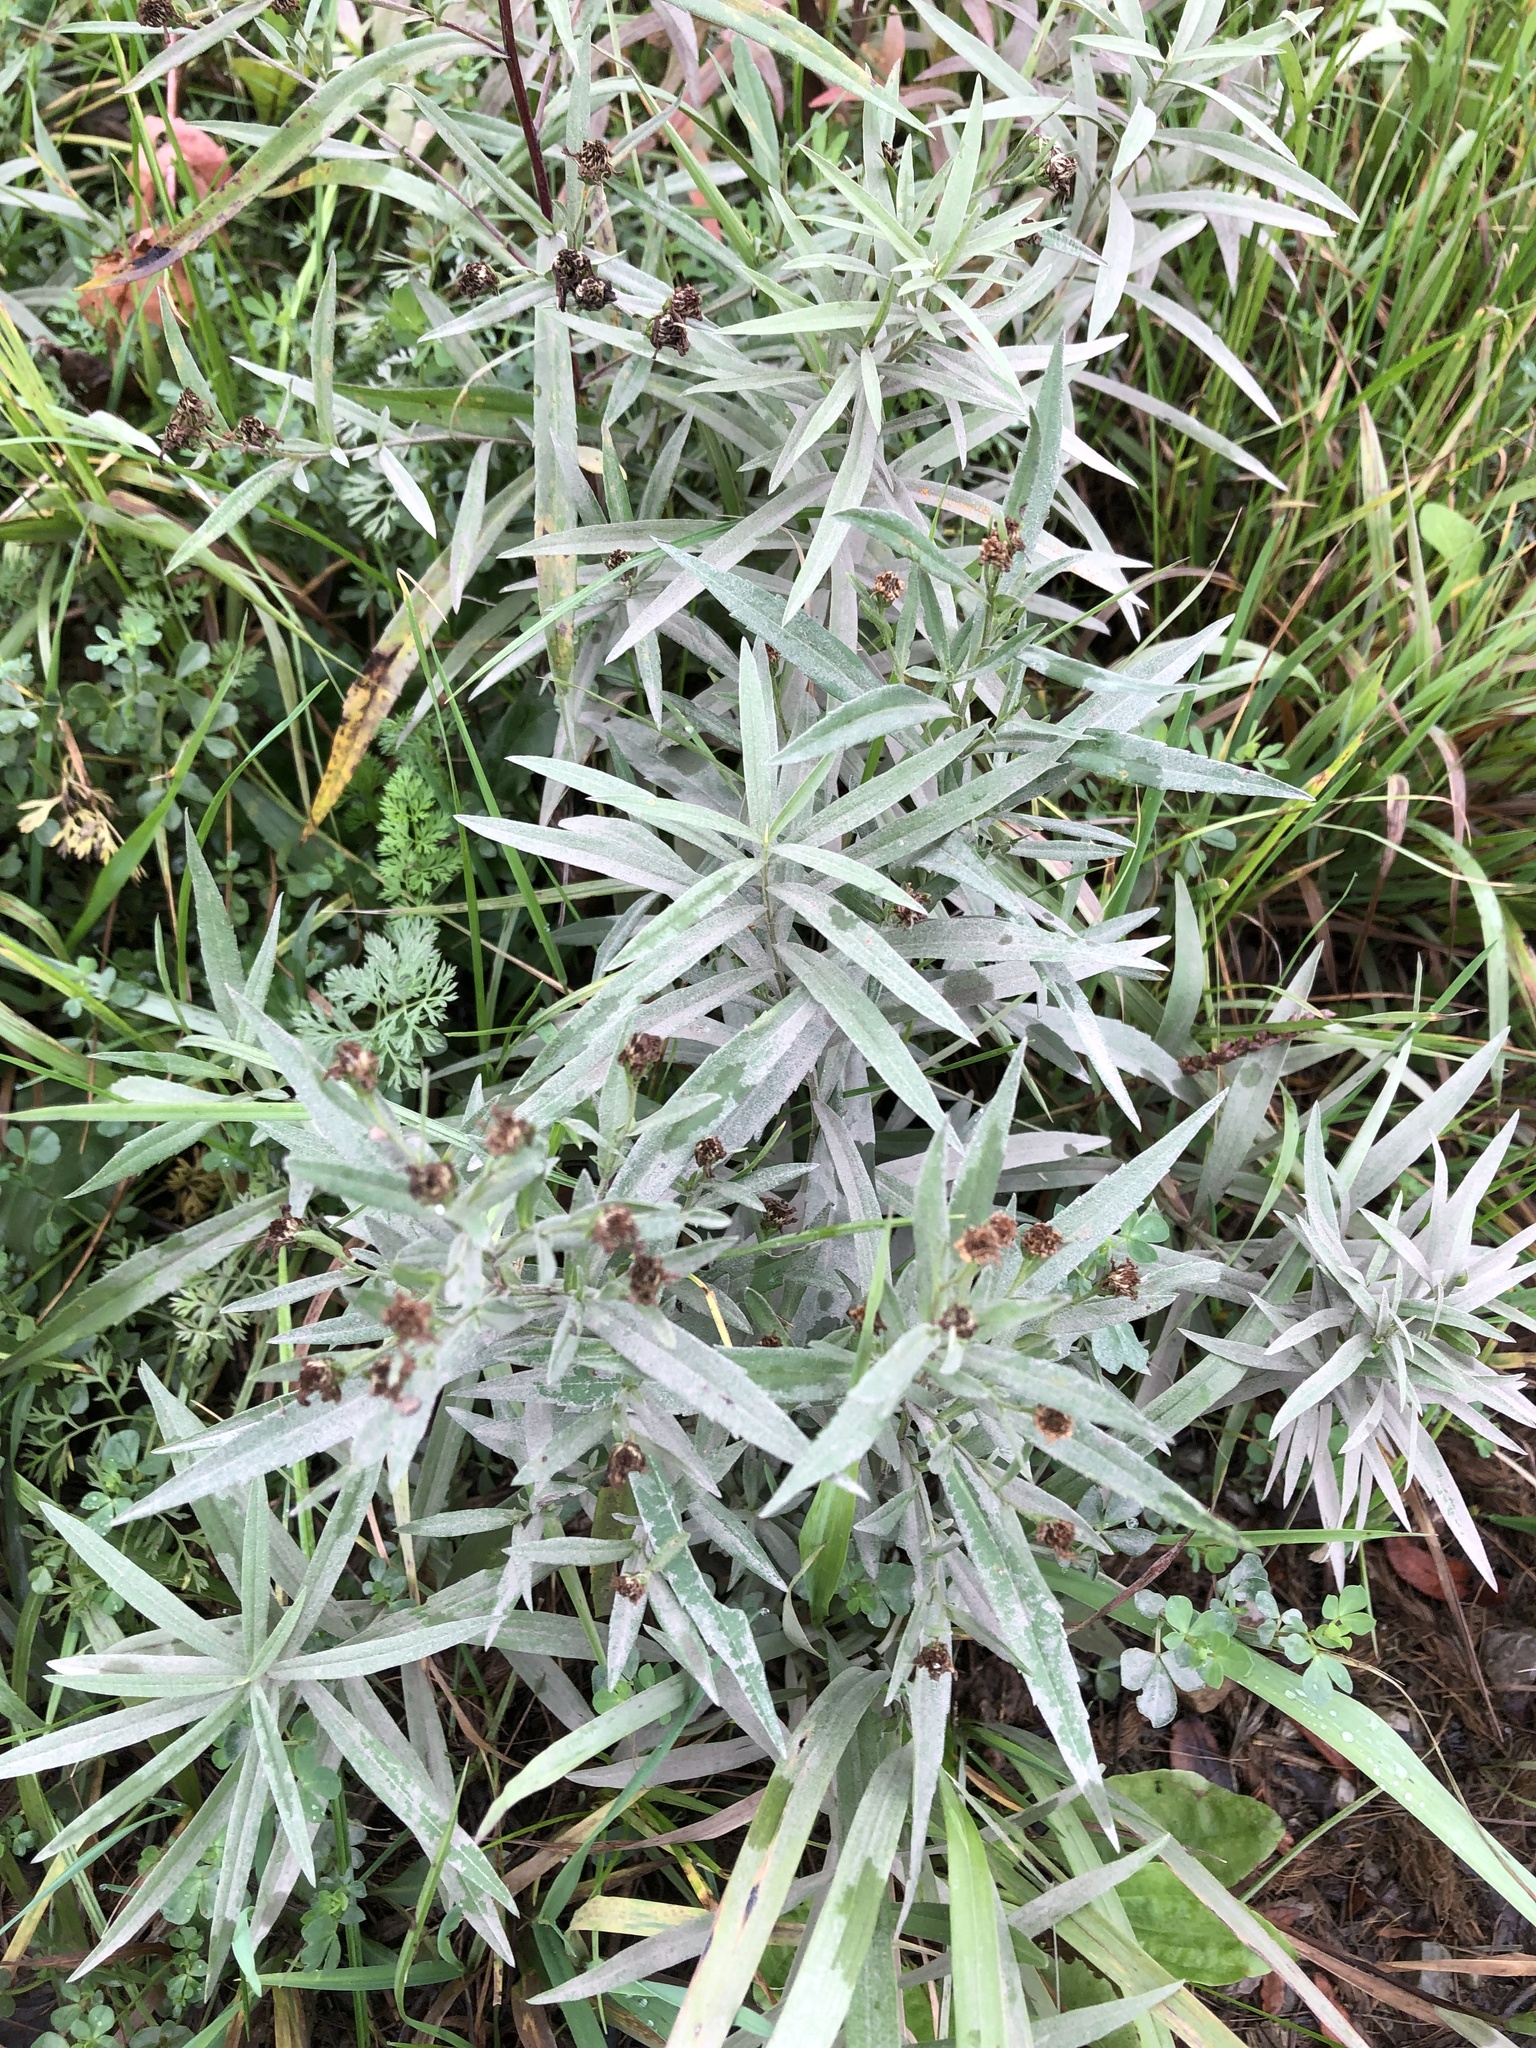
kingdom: Plantae
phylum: Tracheophyta
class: Magnoliopsida
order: Asterales
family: Asteraceae
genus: Anaphalis
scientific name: Anaphalis margaritacea
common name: Pearly everlasting
